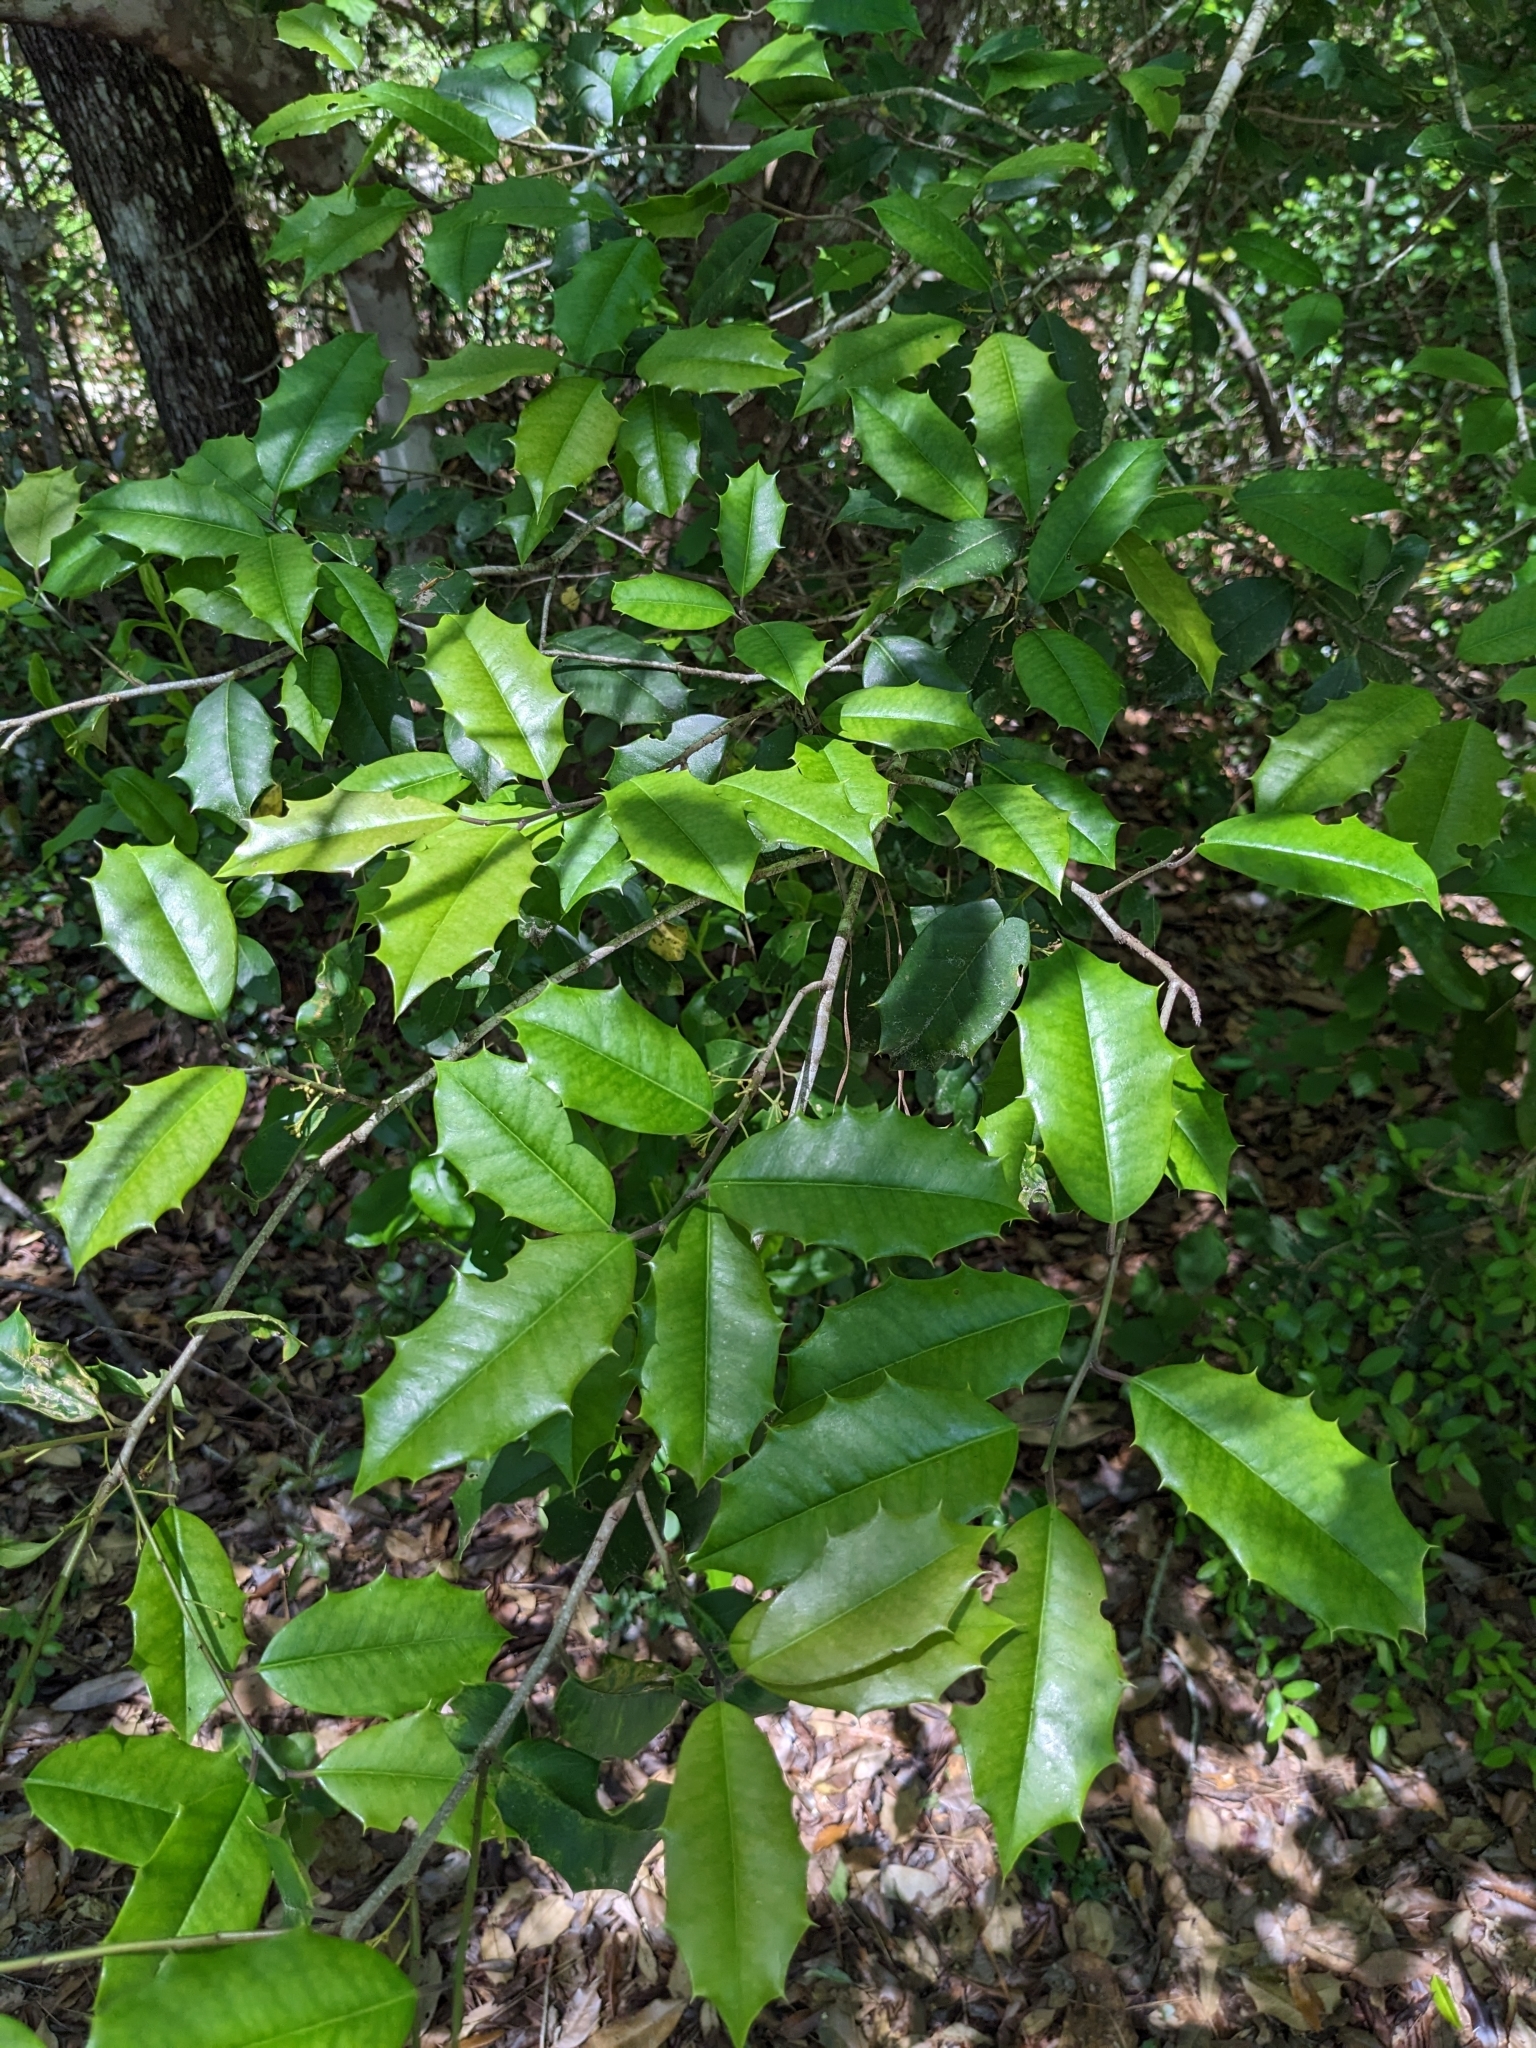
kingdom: Plantae
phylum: Tracheophyta
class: Magnoliopsida
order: Aquifoliales
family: Aquifoliaceae
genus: Ilex
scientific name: Ilex opaca
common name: American holly
